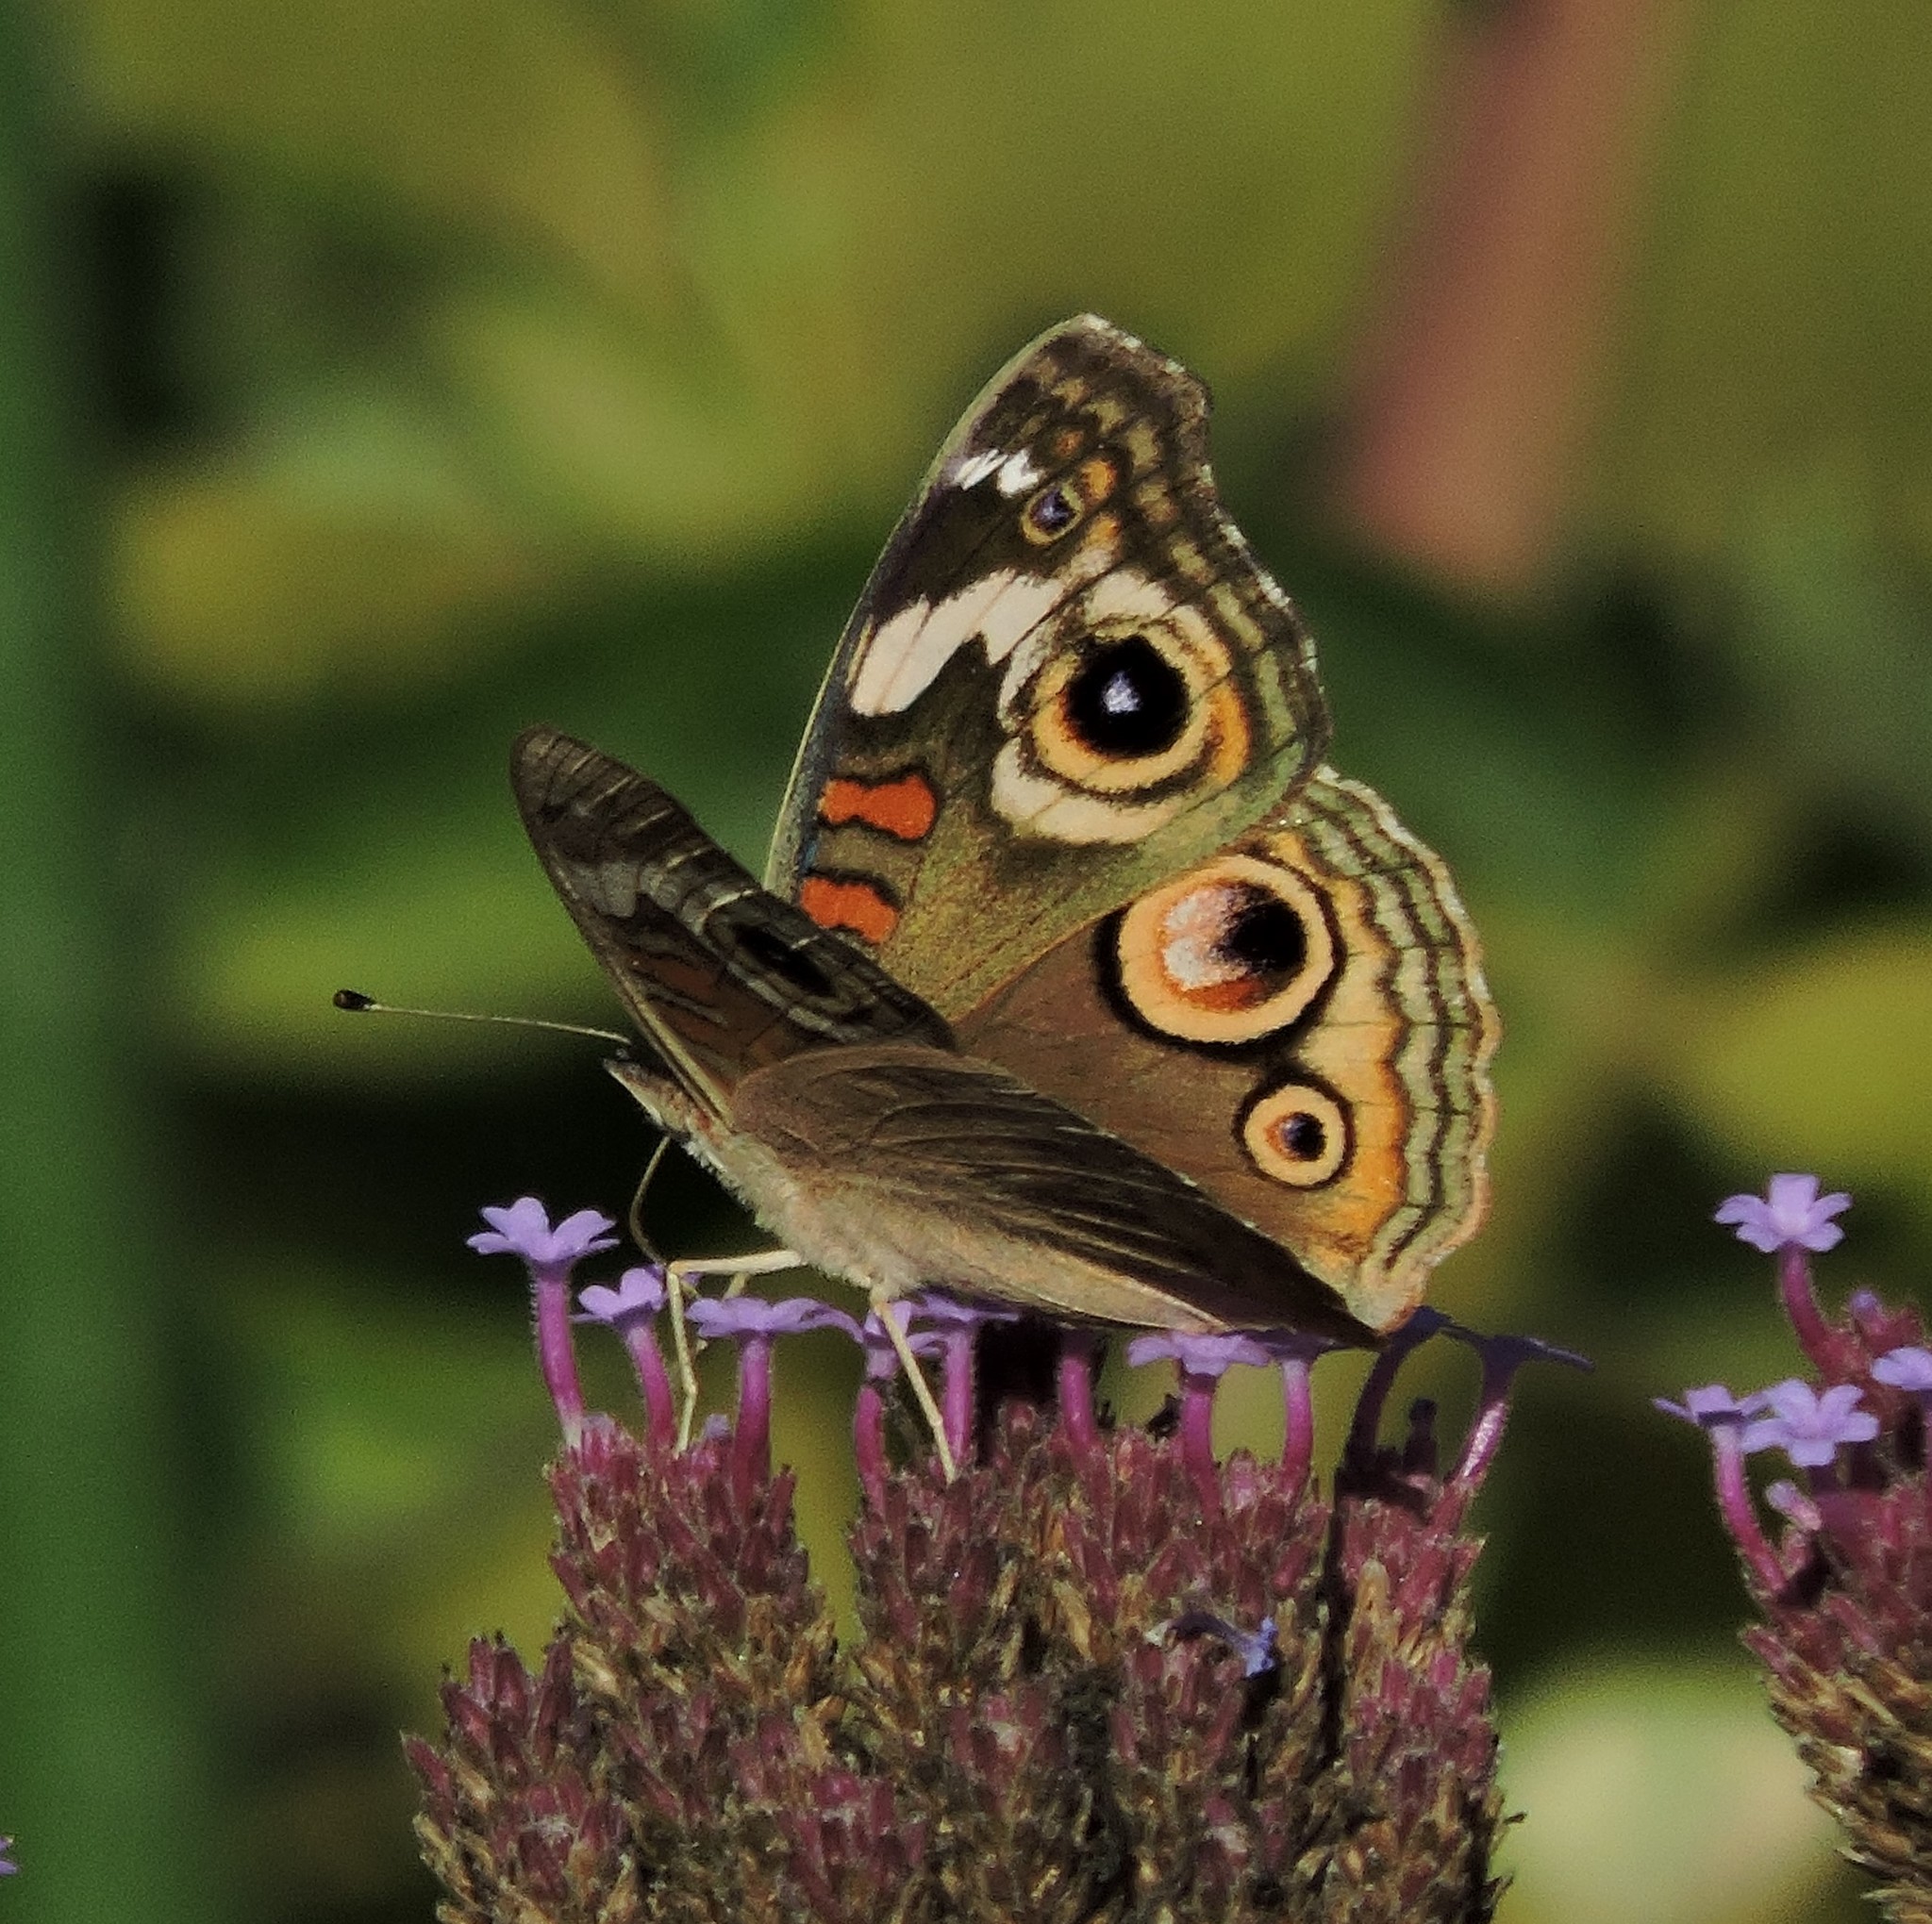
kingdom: Animalia
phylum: Arthropoda
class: Insecta
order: Lepidoptera
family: Nymphalidae
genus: Junonia
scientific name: Junonia grisea
